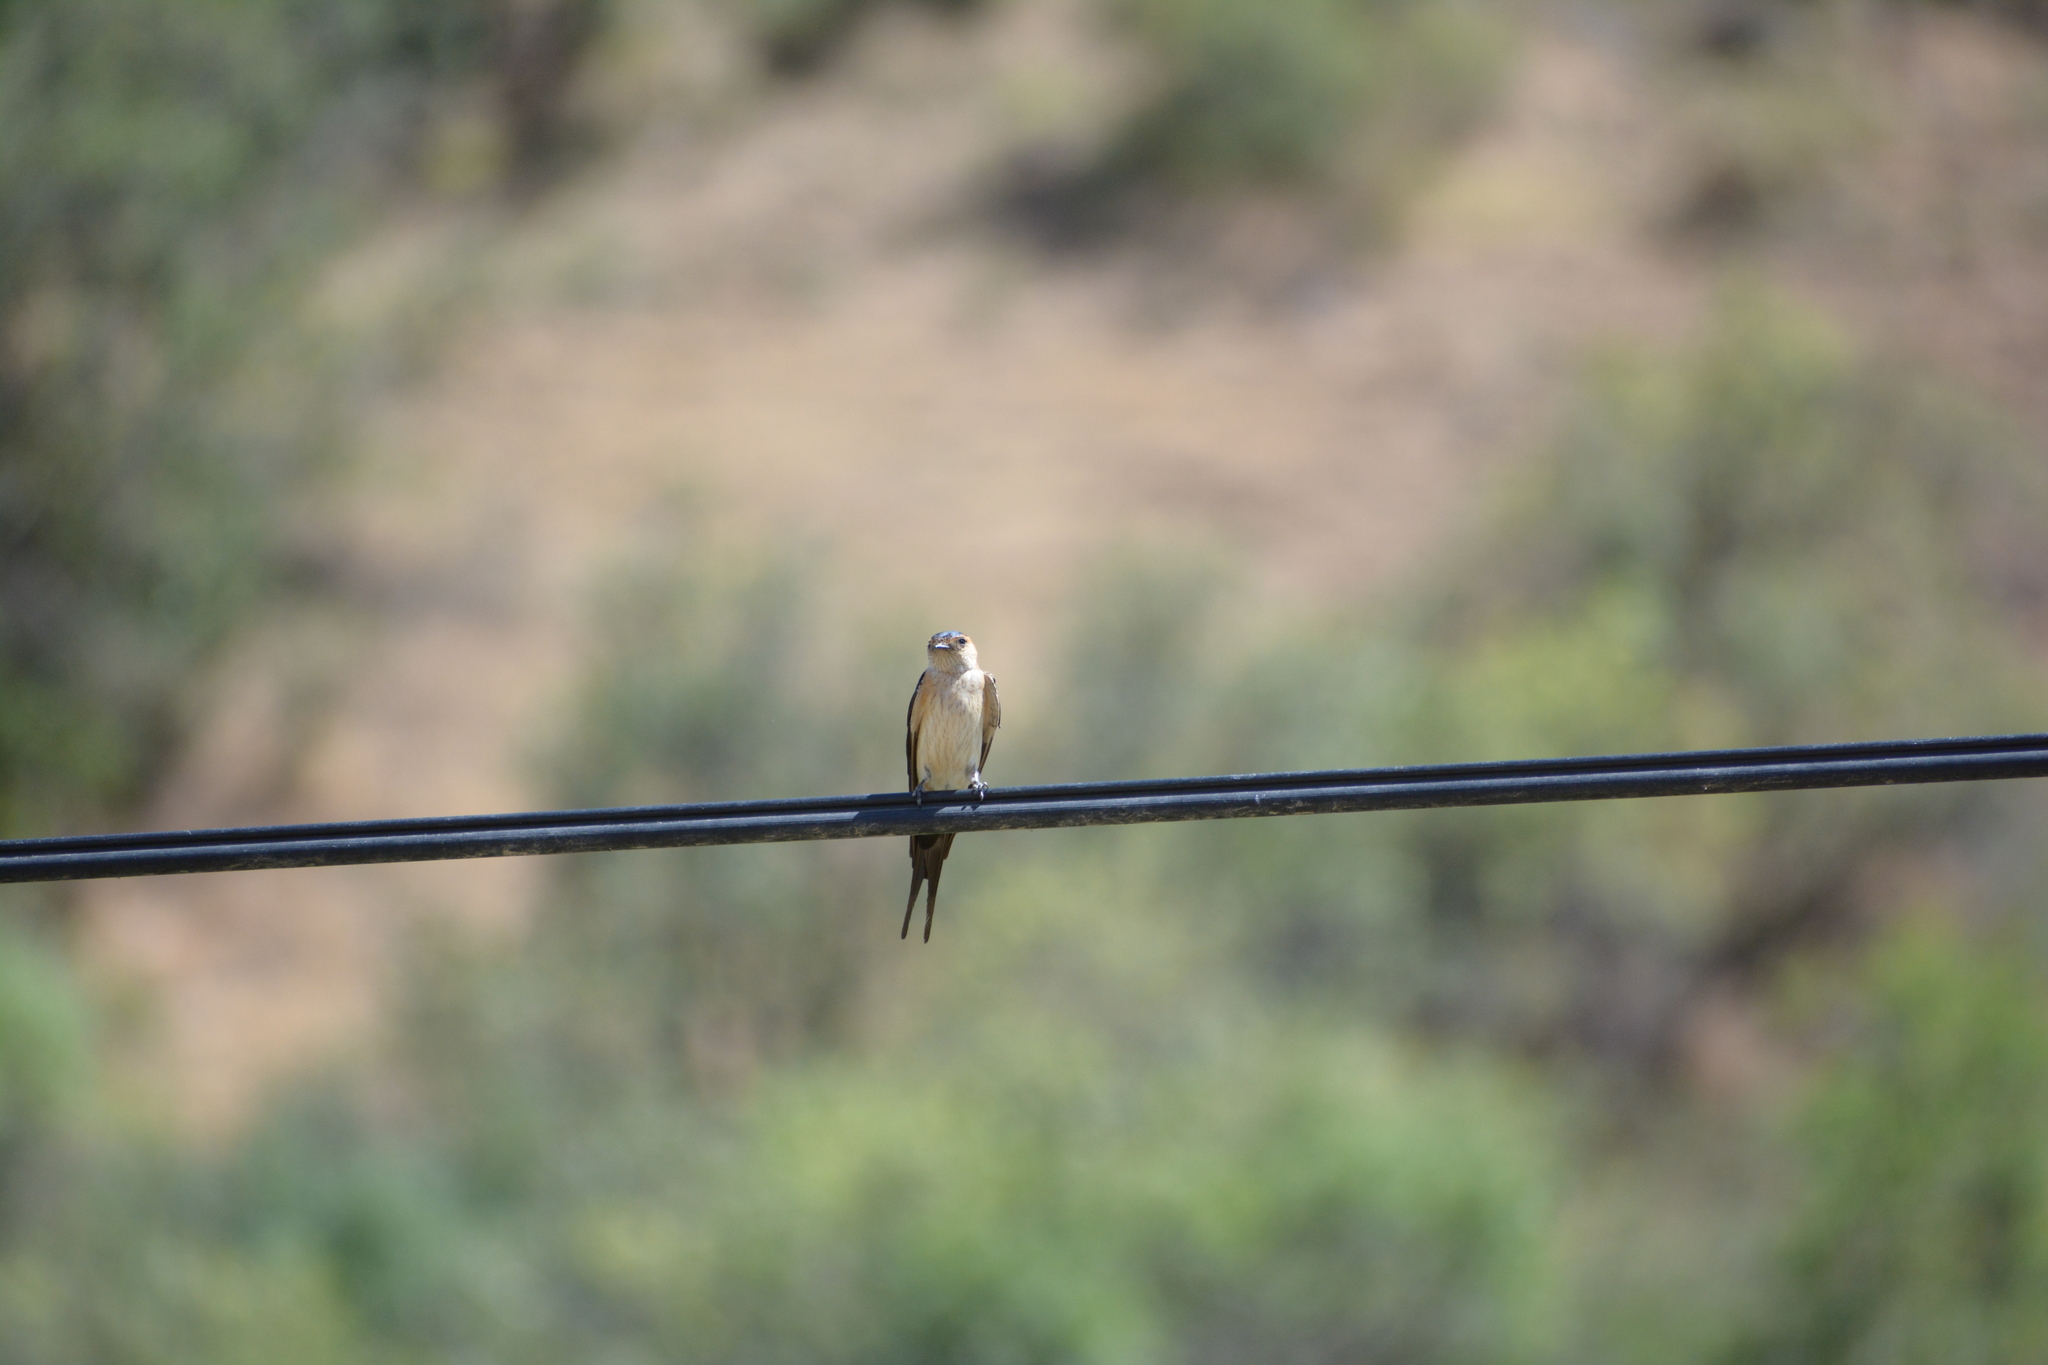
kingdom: Animalia
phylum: Chordata
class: Aves
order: Passeriformes
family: Hirundinidae
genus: Cecropis
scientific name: Cecropis daurica
